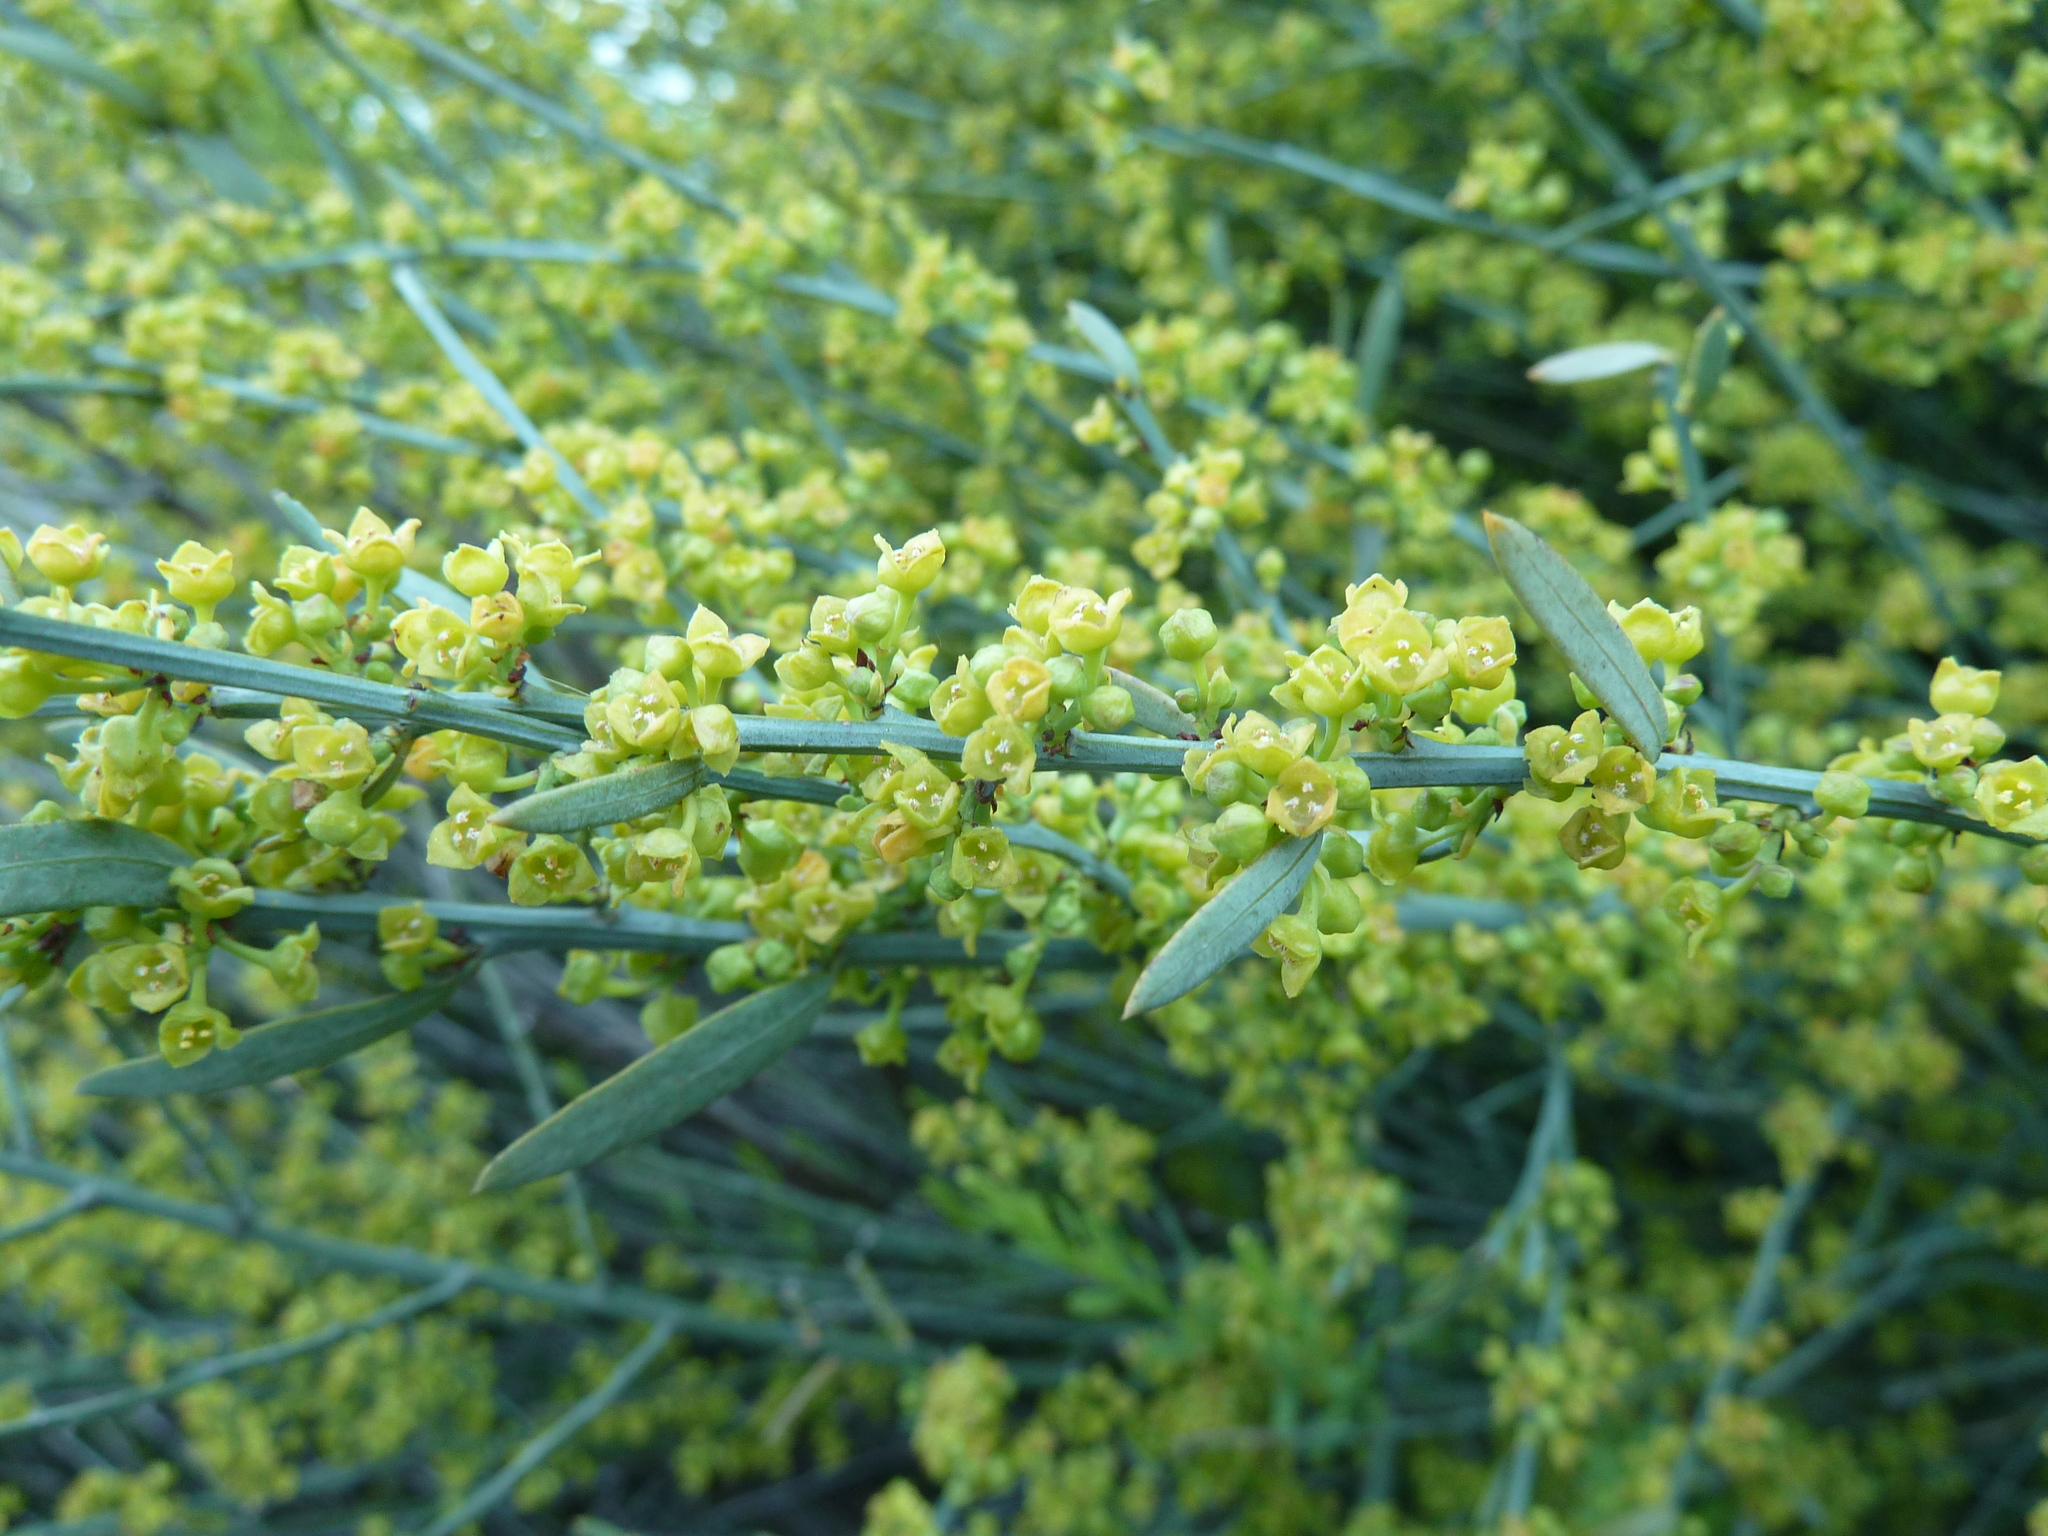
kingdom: Plantae
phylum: Tracheophyta
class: Magnoliopsida
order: Santalales
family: Santalaceae
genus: Osyris
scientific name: Osyris alba
